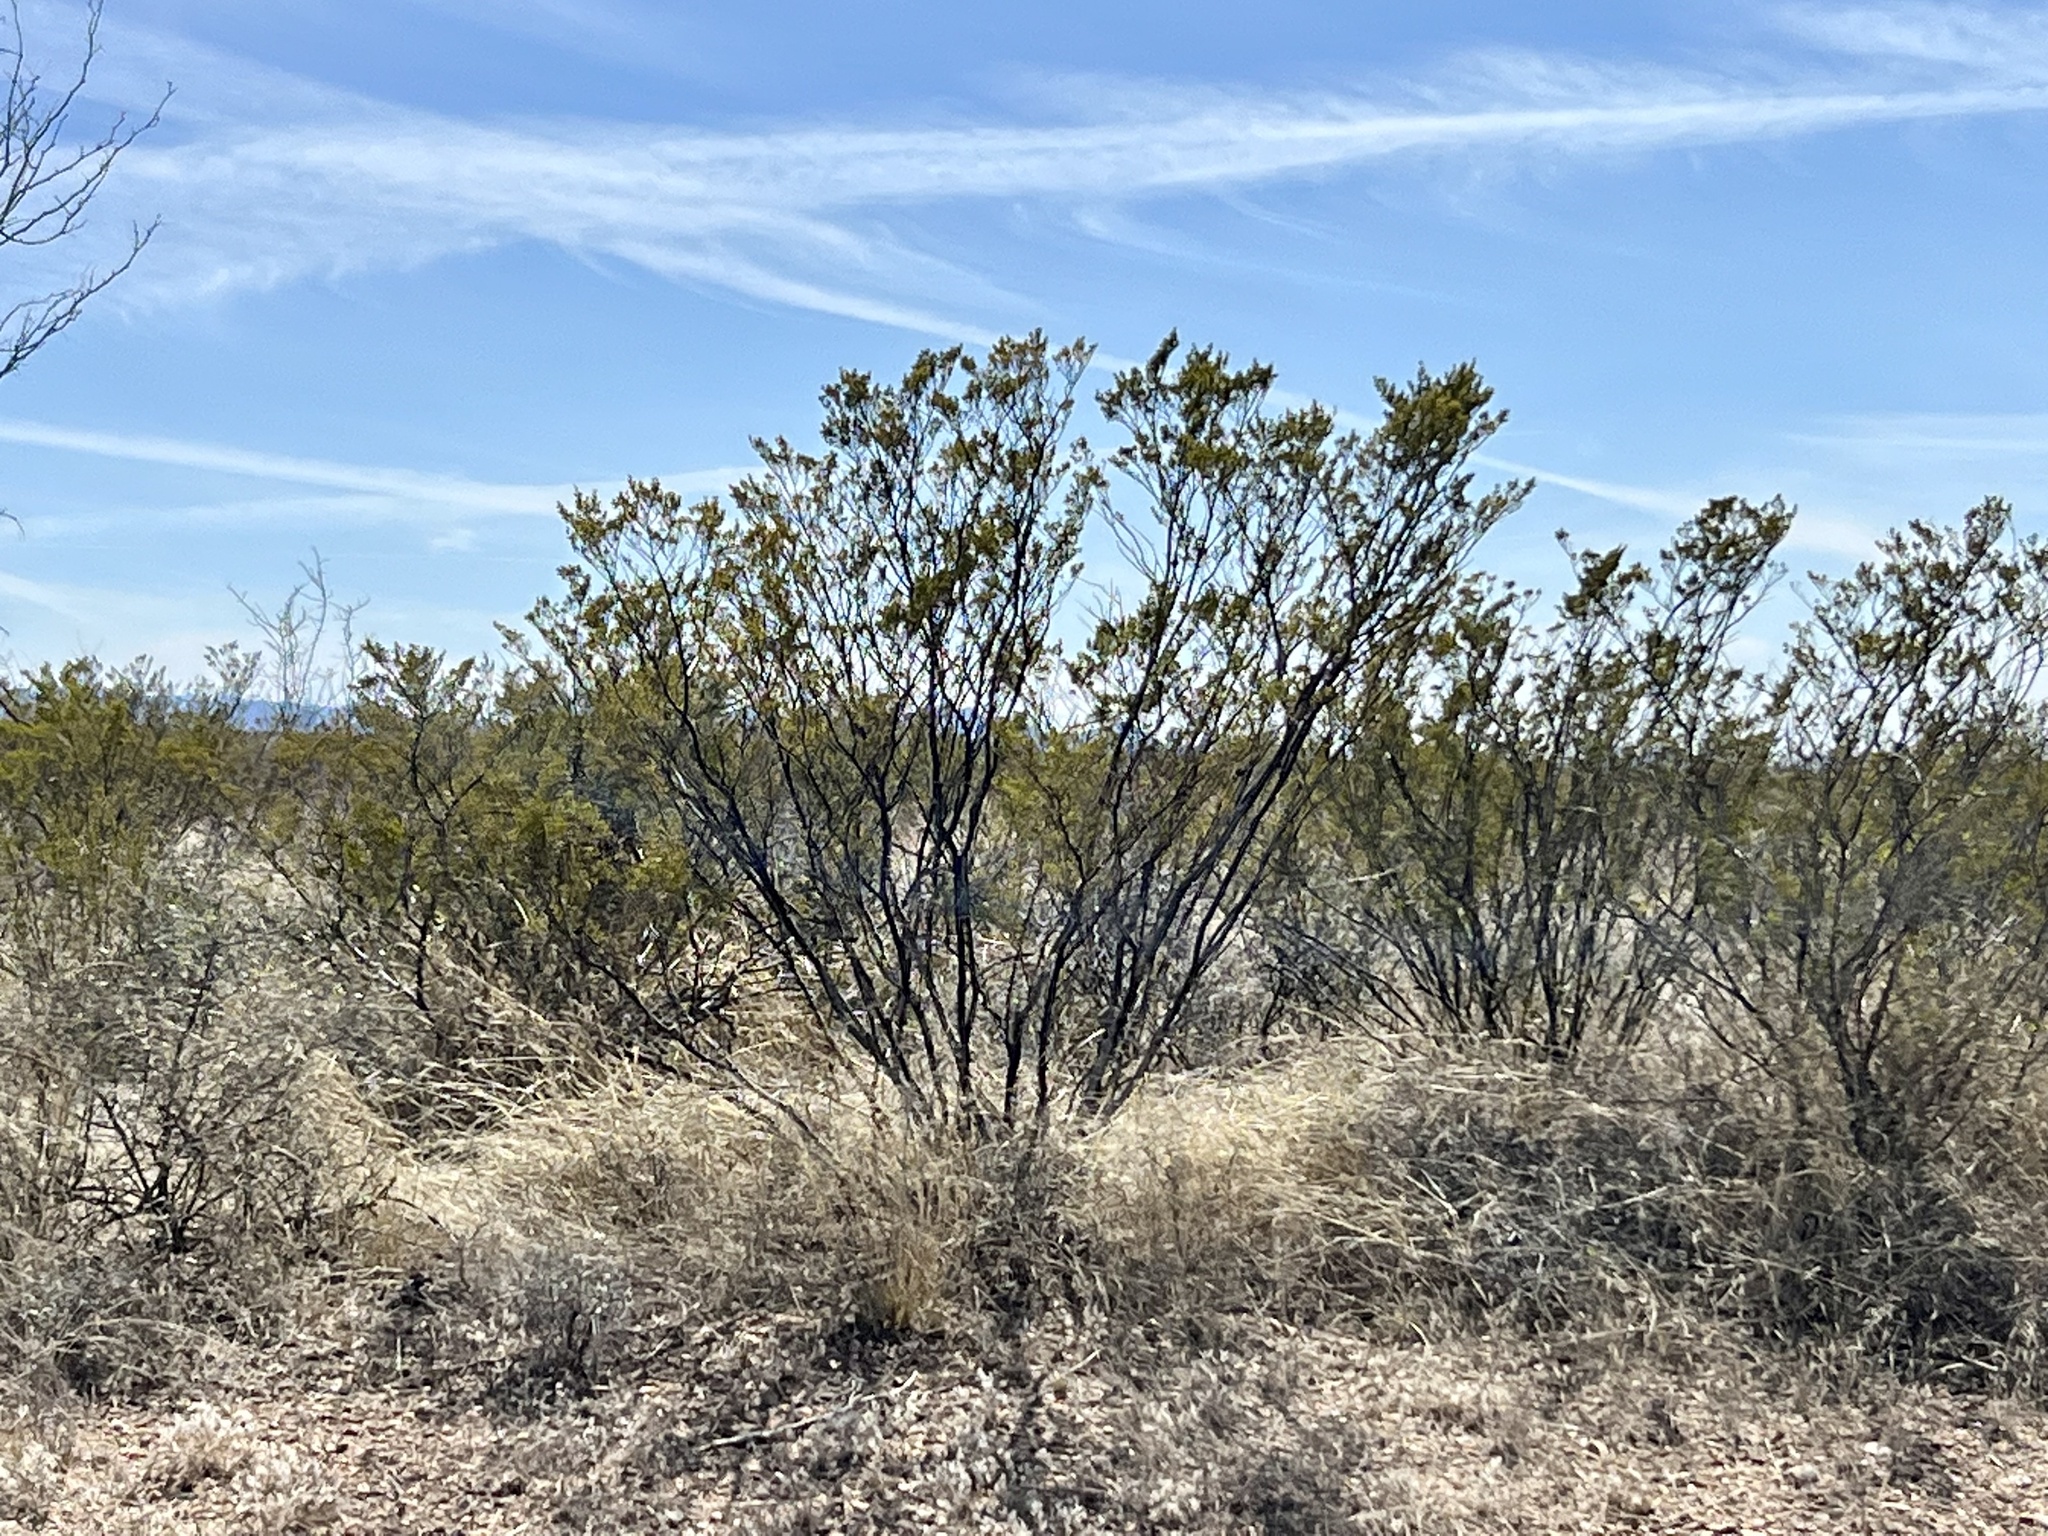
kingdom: Plantae
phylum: Tracheophyta
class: Magnoliopsida
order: Zygophyllales
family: Zygophyllaceae
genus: Larrea
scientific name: Larrea tridentata
